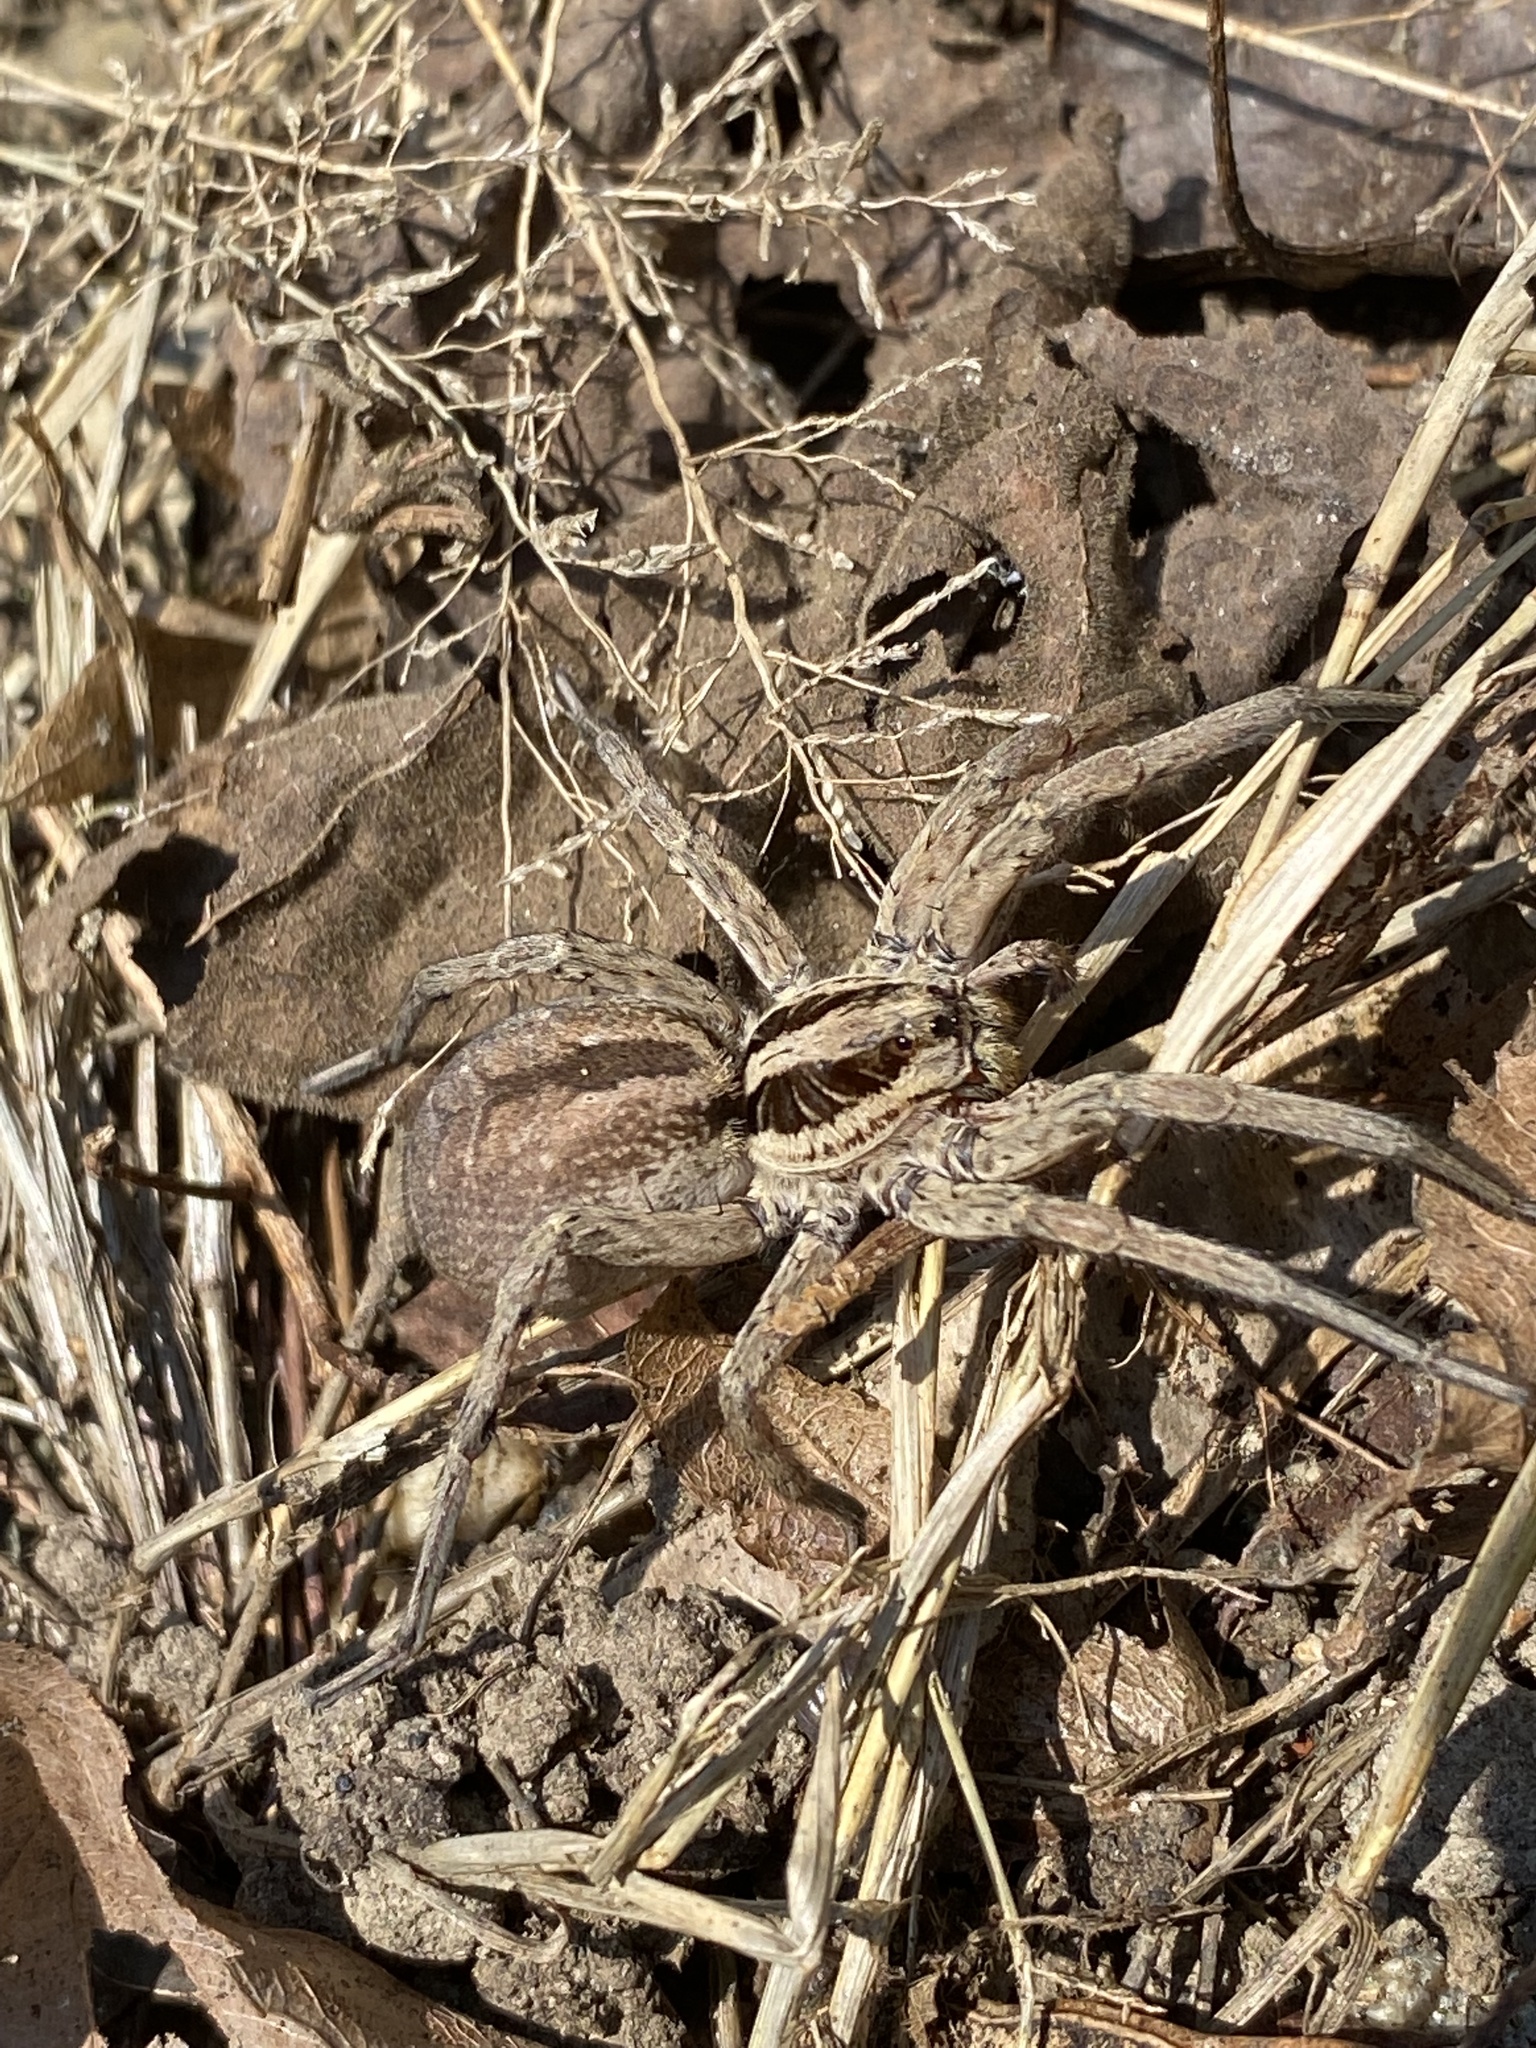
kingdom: Animalia
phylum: Arthropoda
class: Arachnida
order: Araneae
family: Lycosidae
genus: Hogna
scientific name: Hogna radiata
